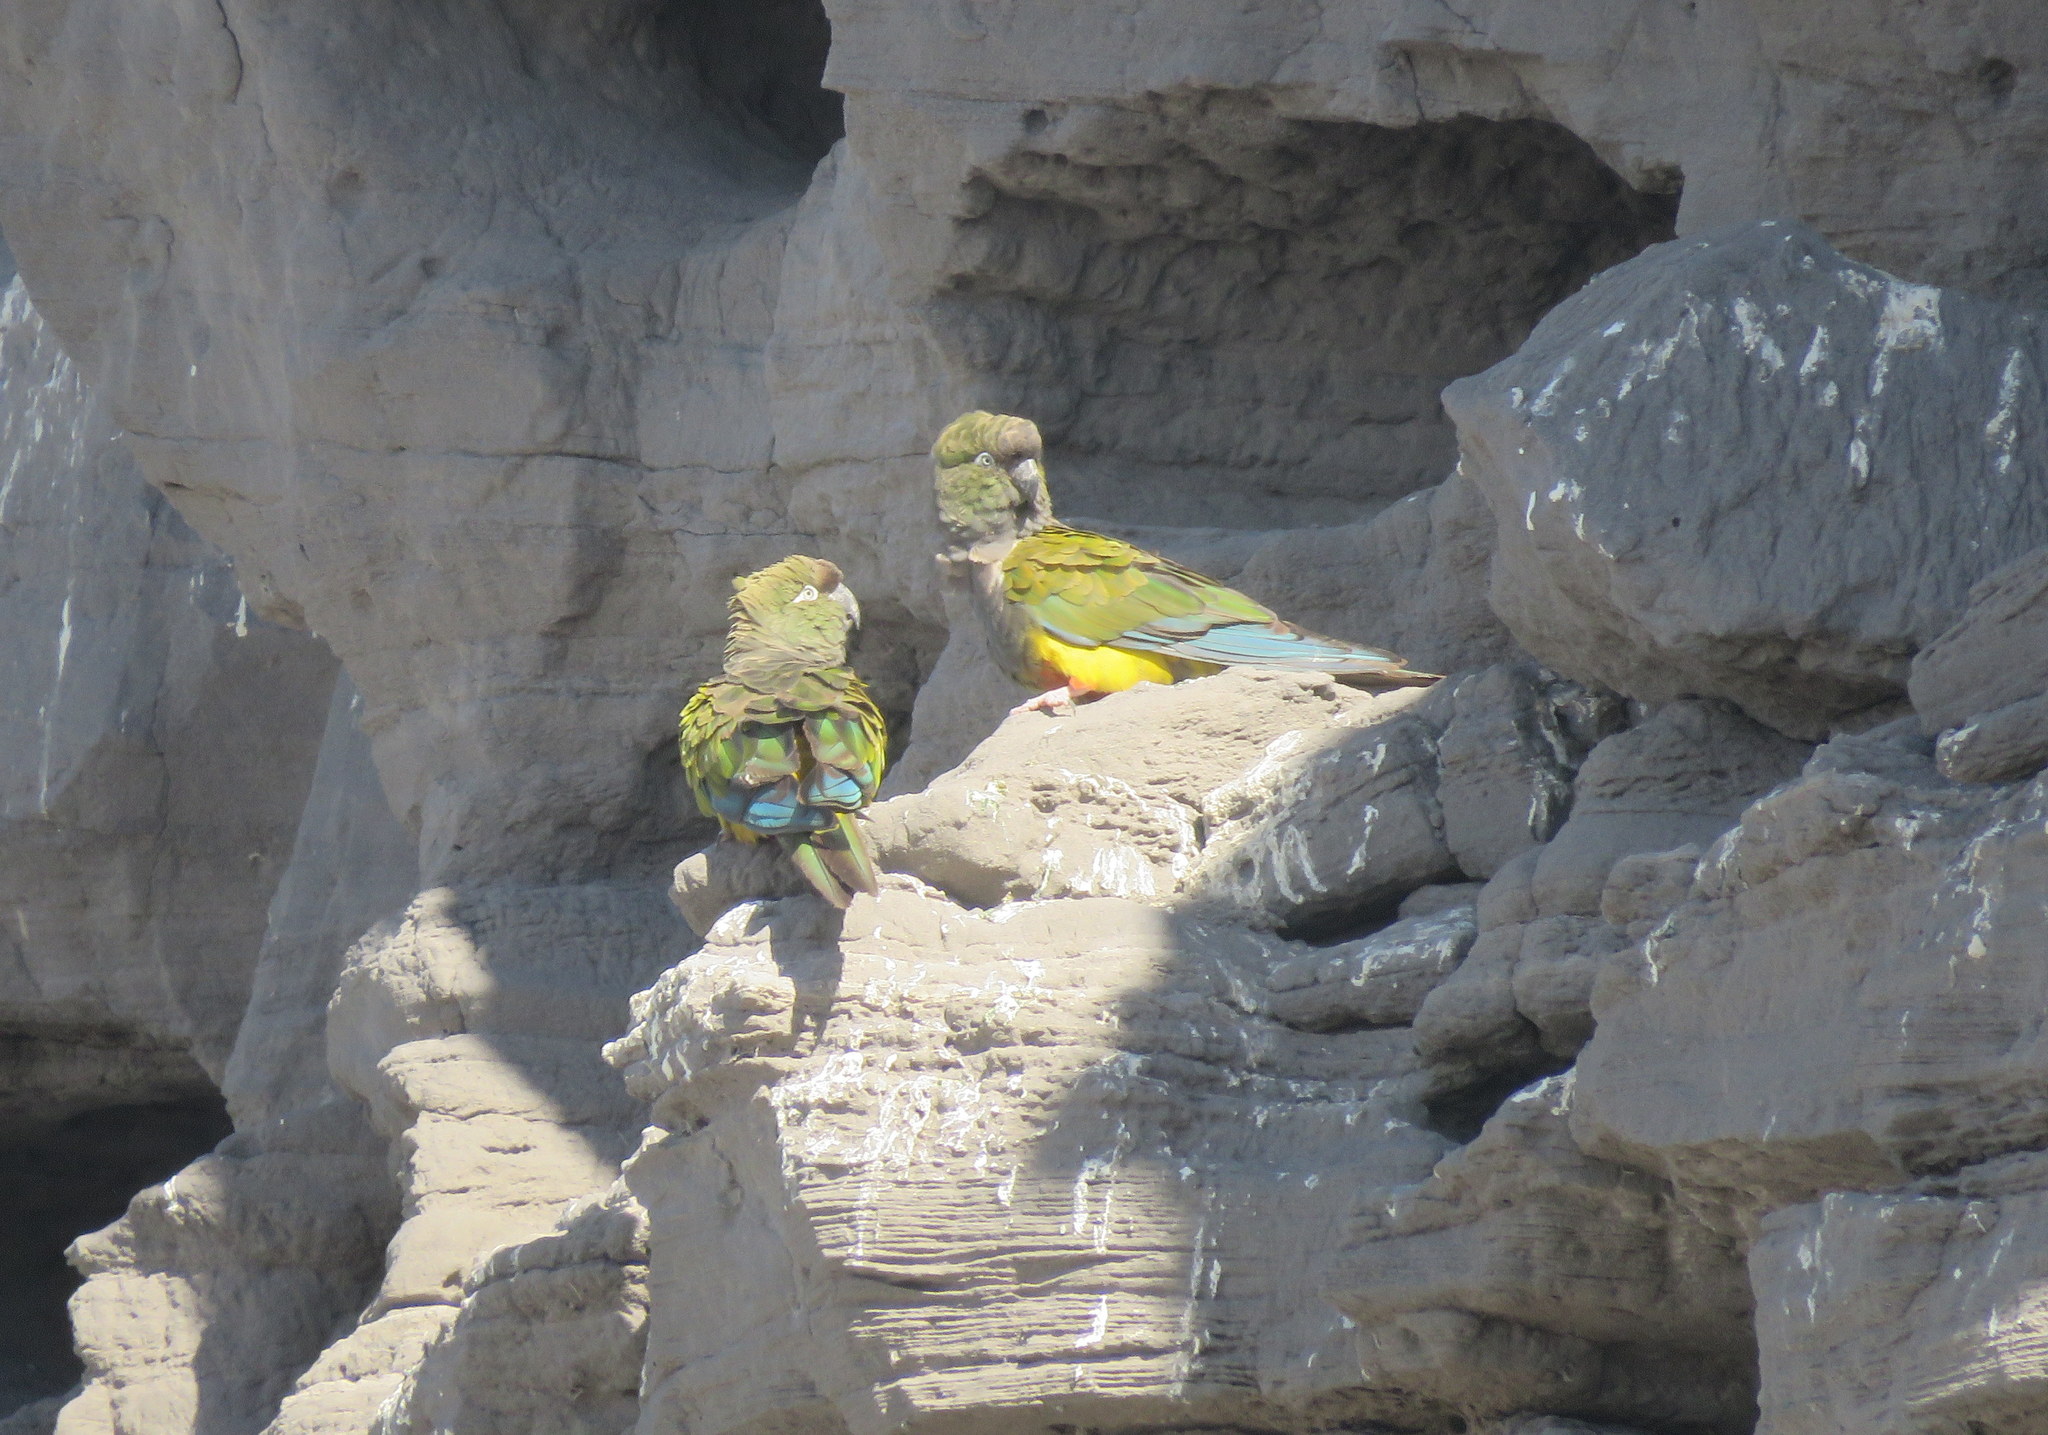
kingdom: Animalia
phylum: Chordata
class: Aves
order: Psittaciformes
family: Psittacidae
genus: Cyanoliseus
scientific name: Cyanoliseus patagonus
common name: Burrowing parrot
